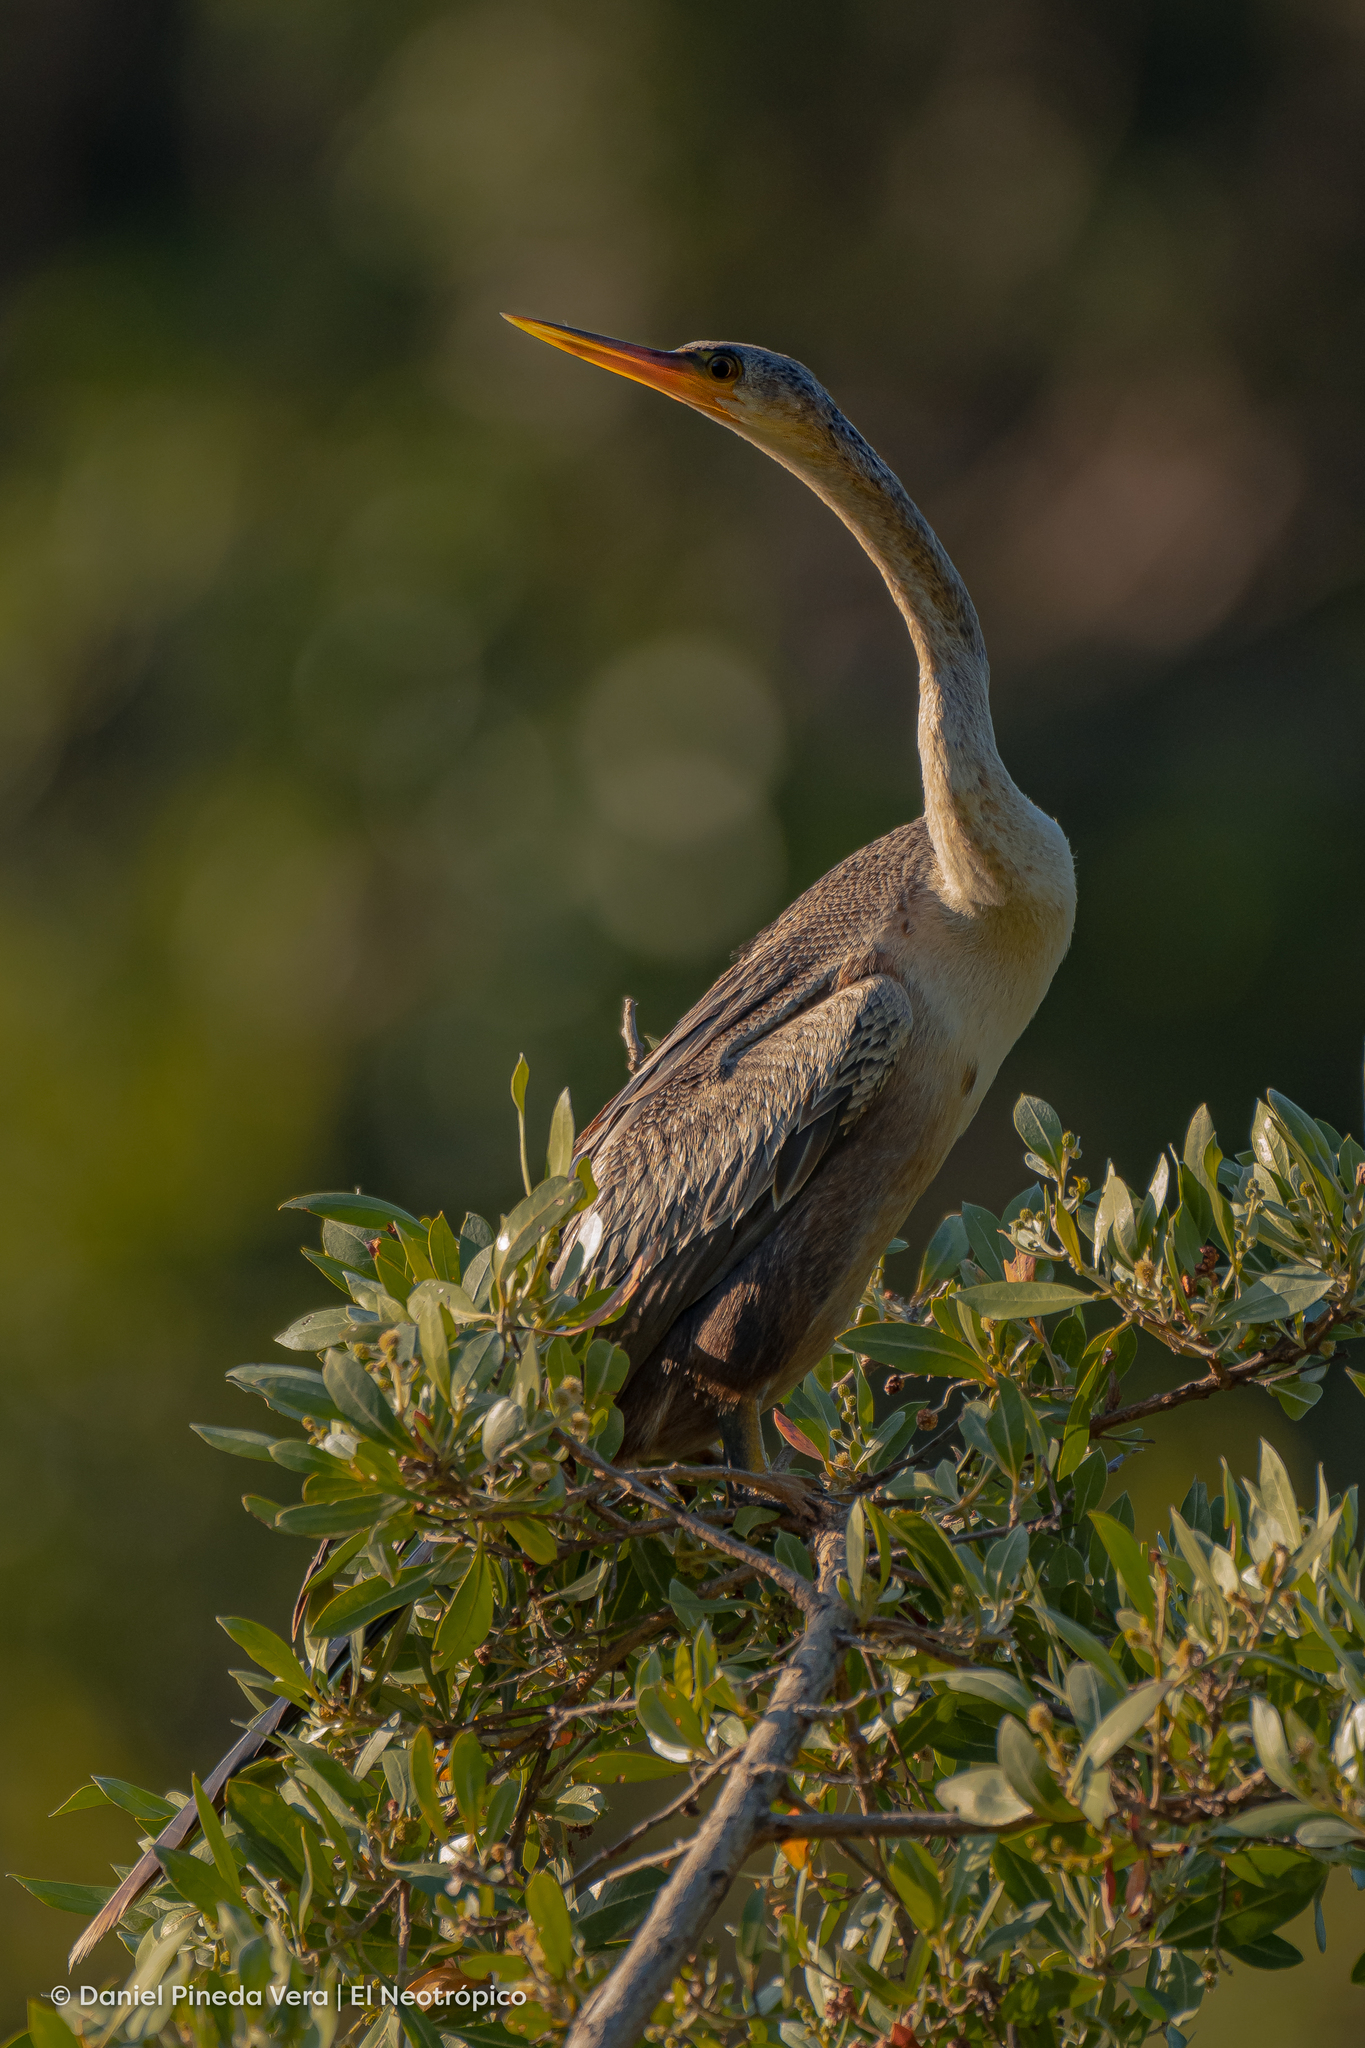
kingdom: Animalia
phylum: Chordata
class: Aves
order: Suliformes
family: Anhingidae
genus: Anhinga
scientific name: Anhinga anhinga
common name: Anhinga
